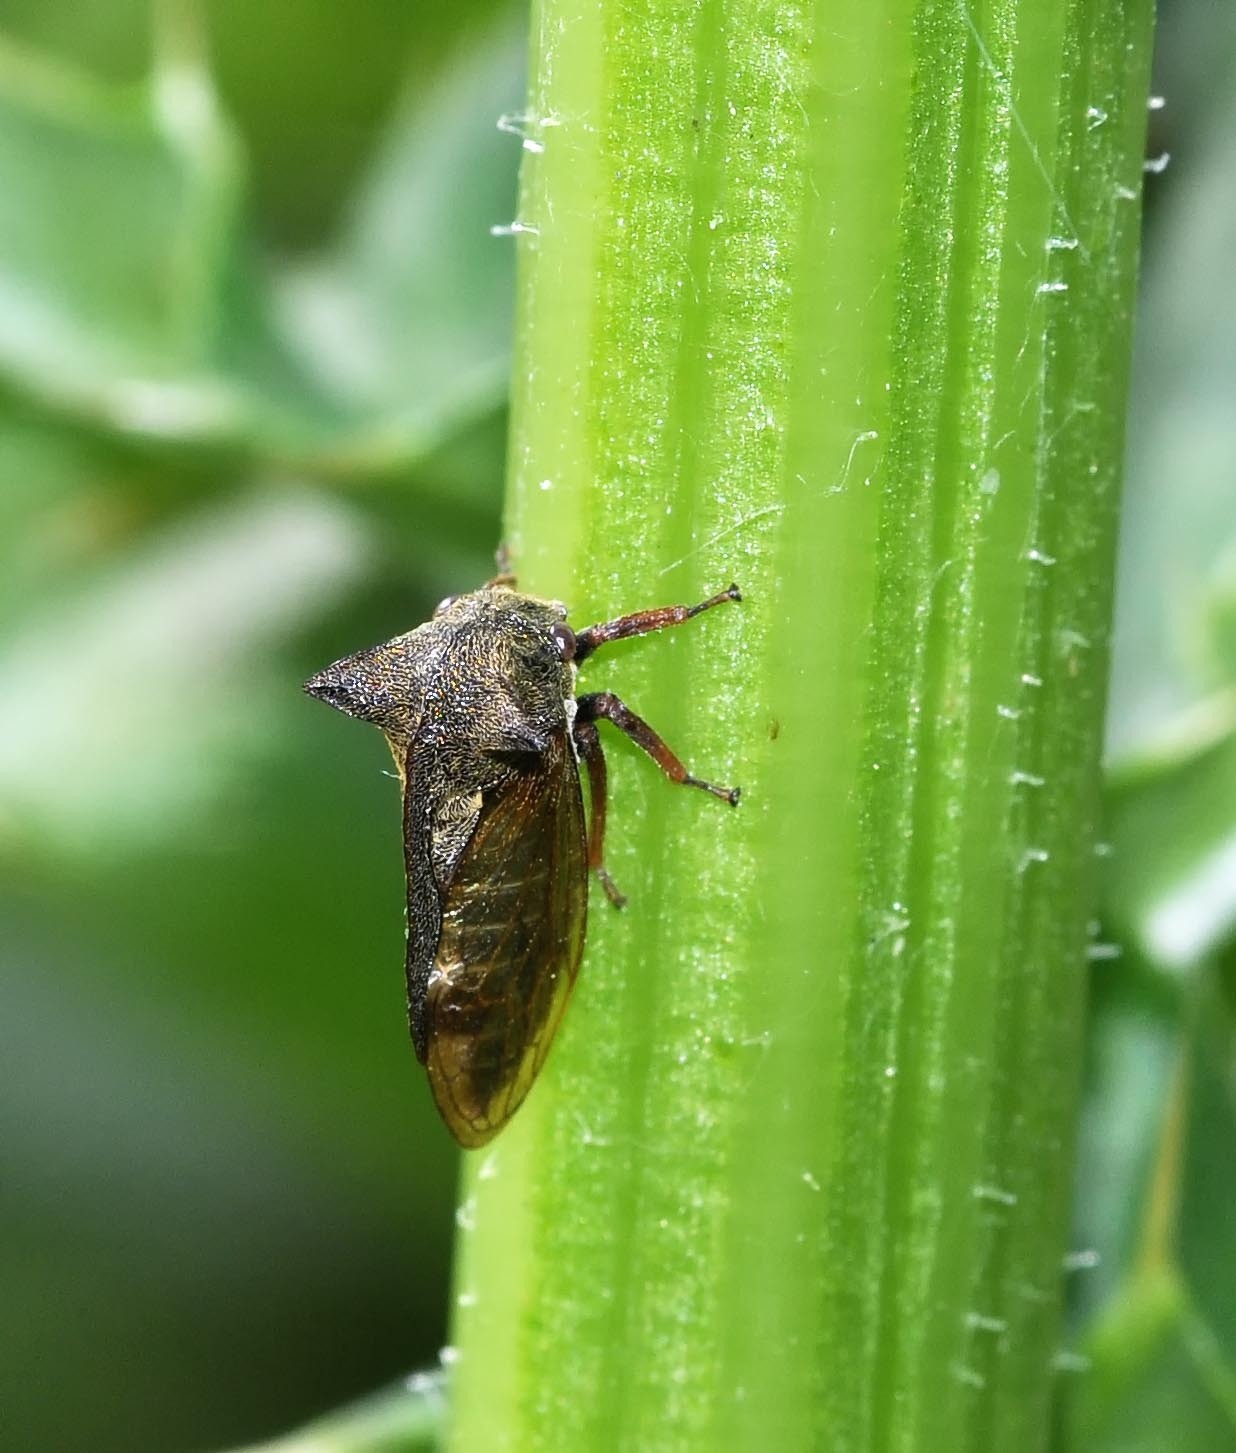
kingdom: Animalia
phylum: Arthropoda
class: Insecta
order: Hemiptera
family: Membracidae
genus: Centrotus
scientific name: Centrotus cornuta
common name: Treehopper
